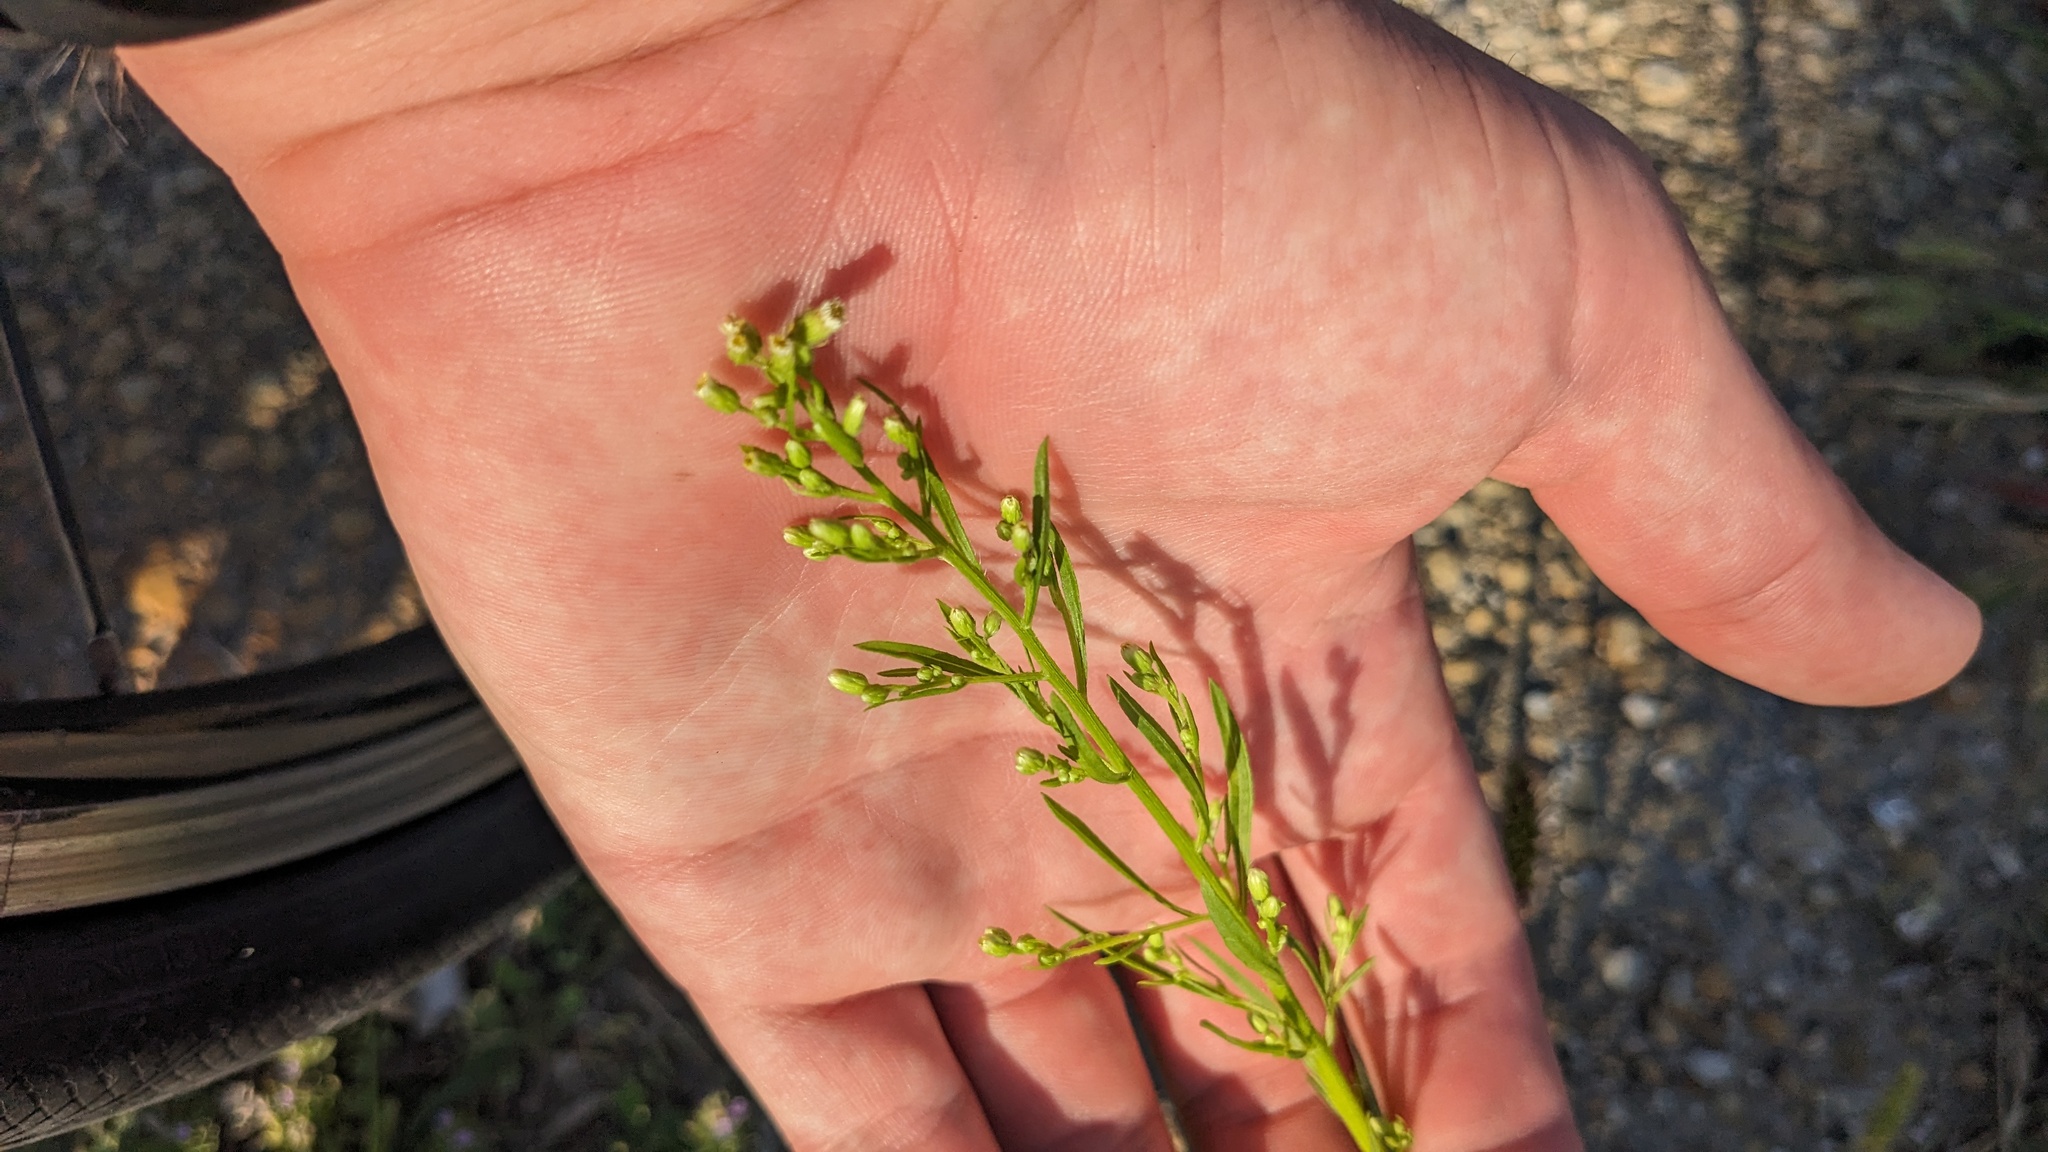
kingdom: Plantae
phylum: Tracheophyta
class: Magnoliopsida
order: Asterales
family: Asteraceae
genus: Erigeron
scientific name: Erigeron canadensis
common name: Canadian fleabane
